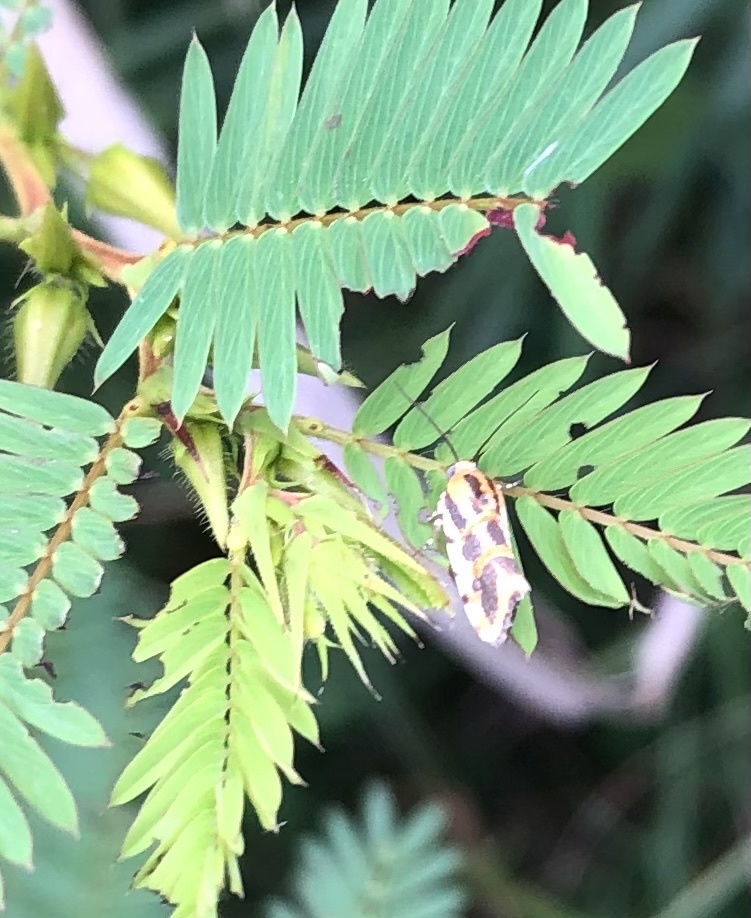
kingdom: Animalia
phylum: Arthropoda
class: Insecta
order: Lepidoptera
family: Noctuidae
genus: Acontia
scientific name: Acontia leo
